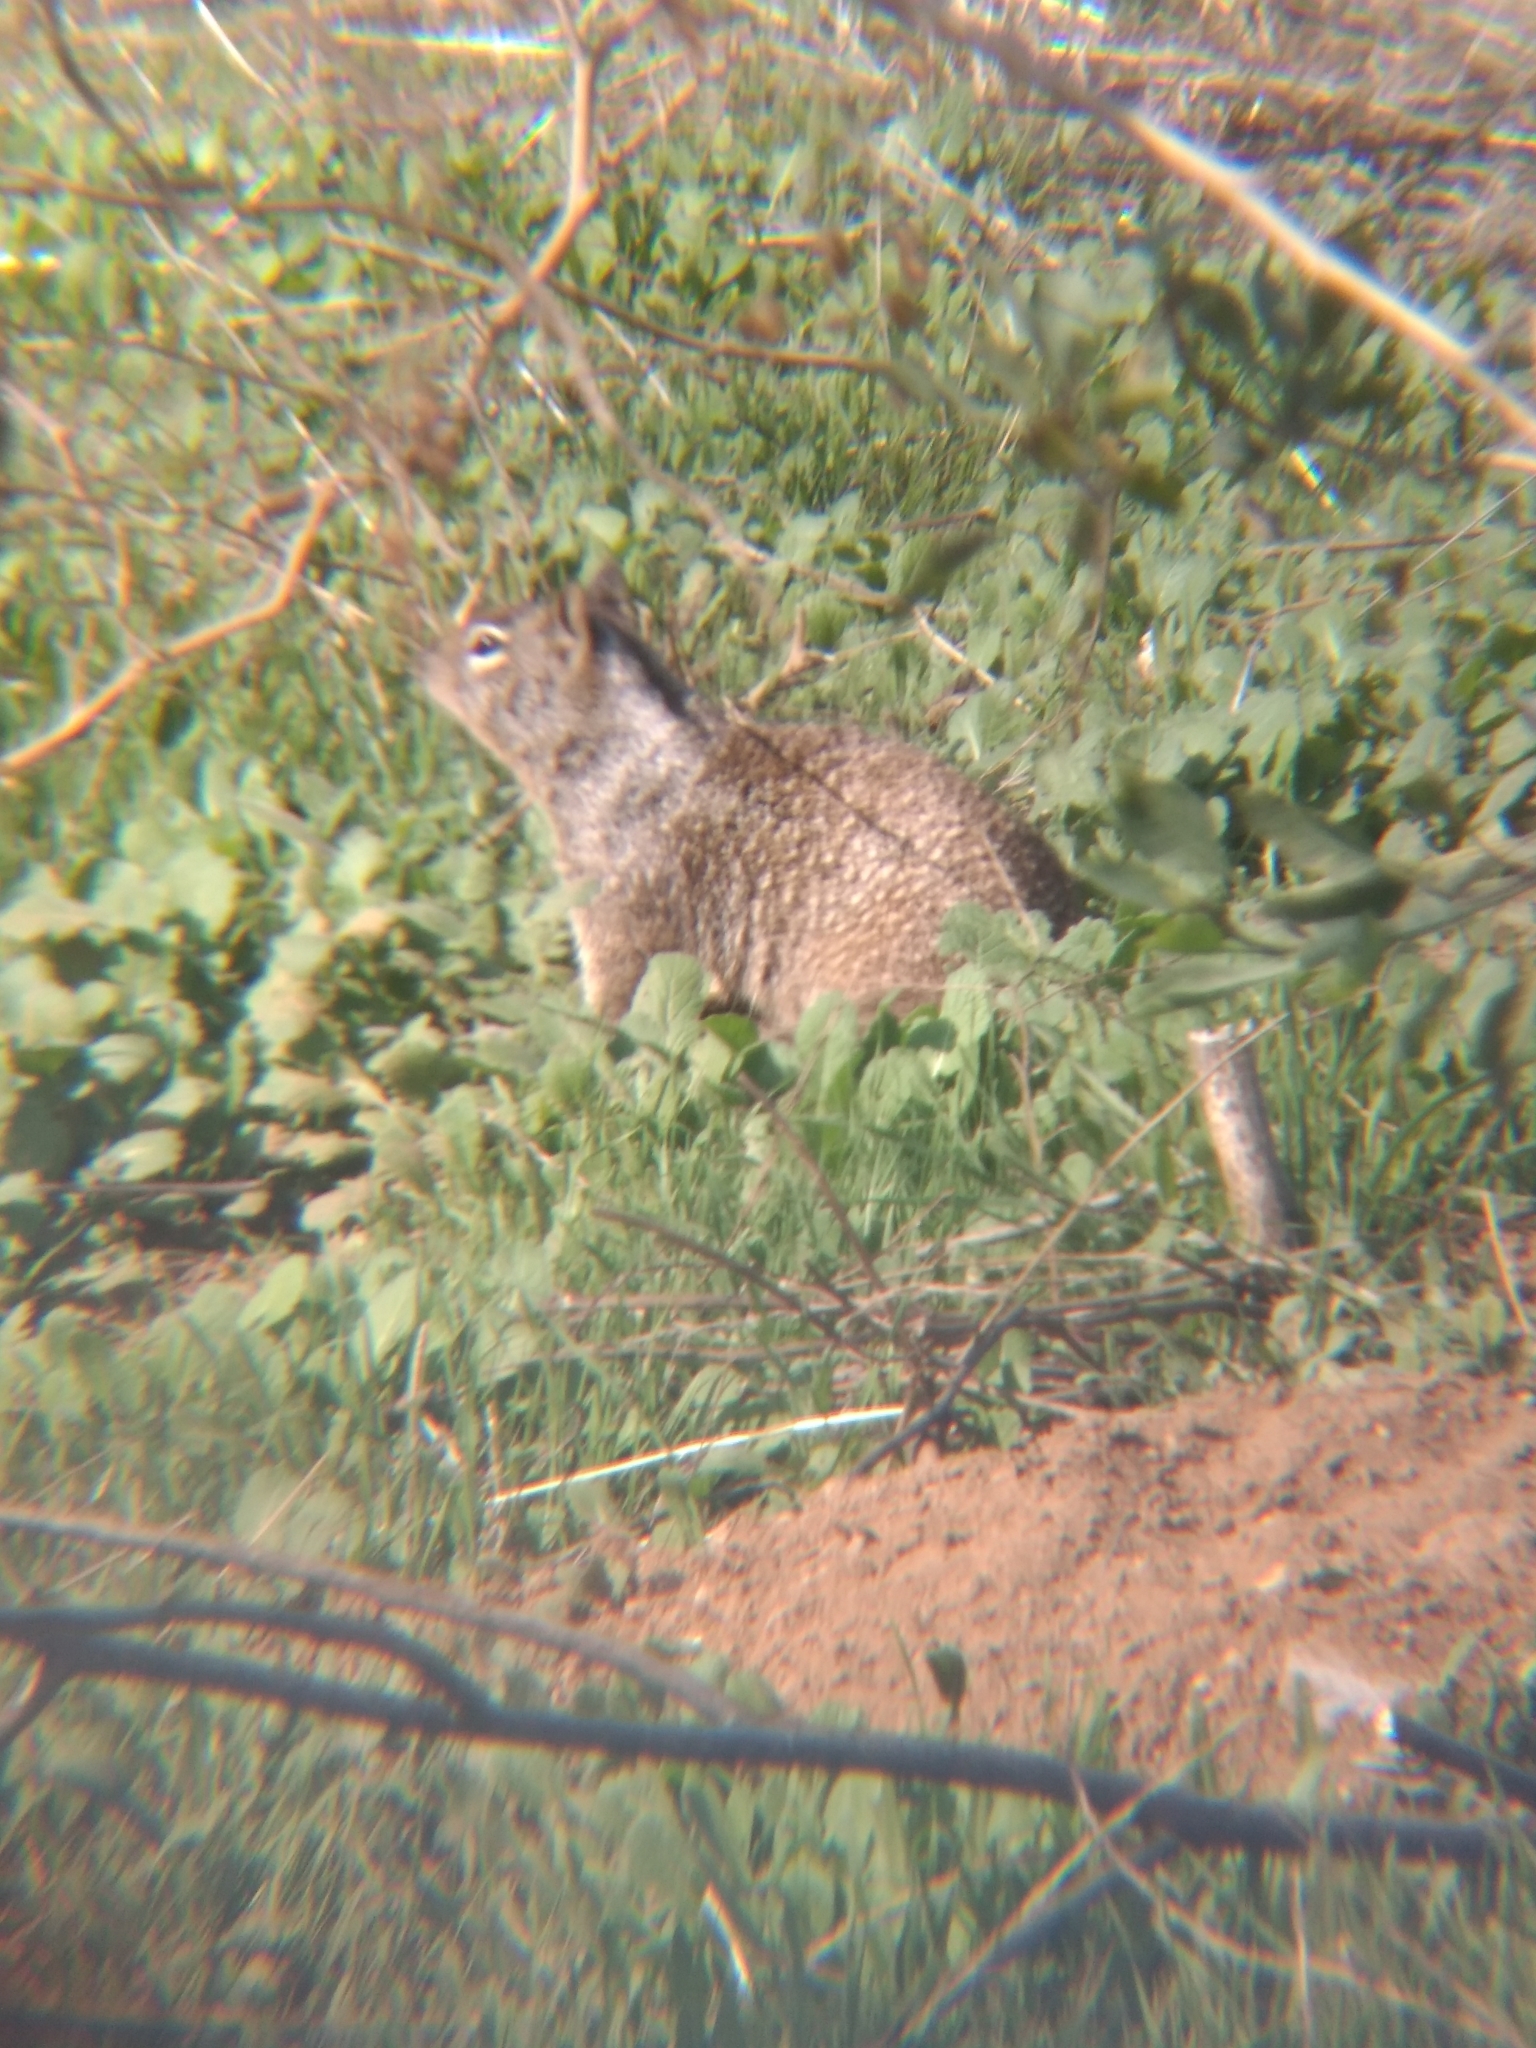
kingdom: Animalia
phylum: Chordata
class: Mammalia
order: Rodentia
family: Sciuridae
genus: Otospermophilus
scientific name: Otospermophilus beecheyi
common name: California ground squirrel
